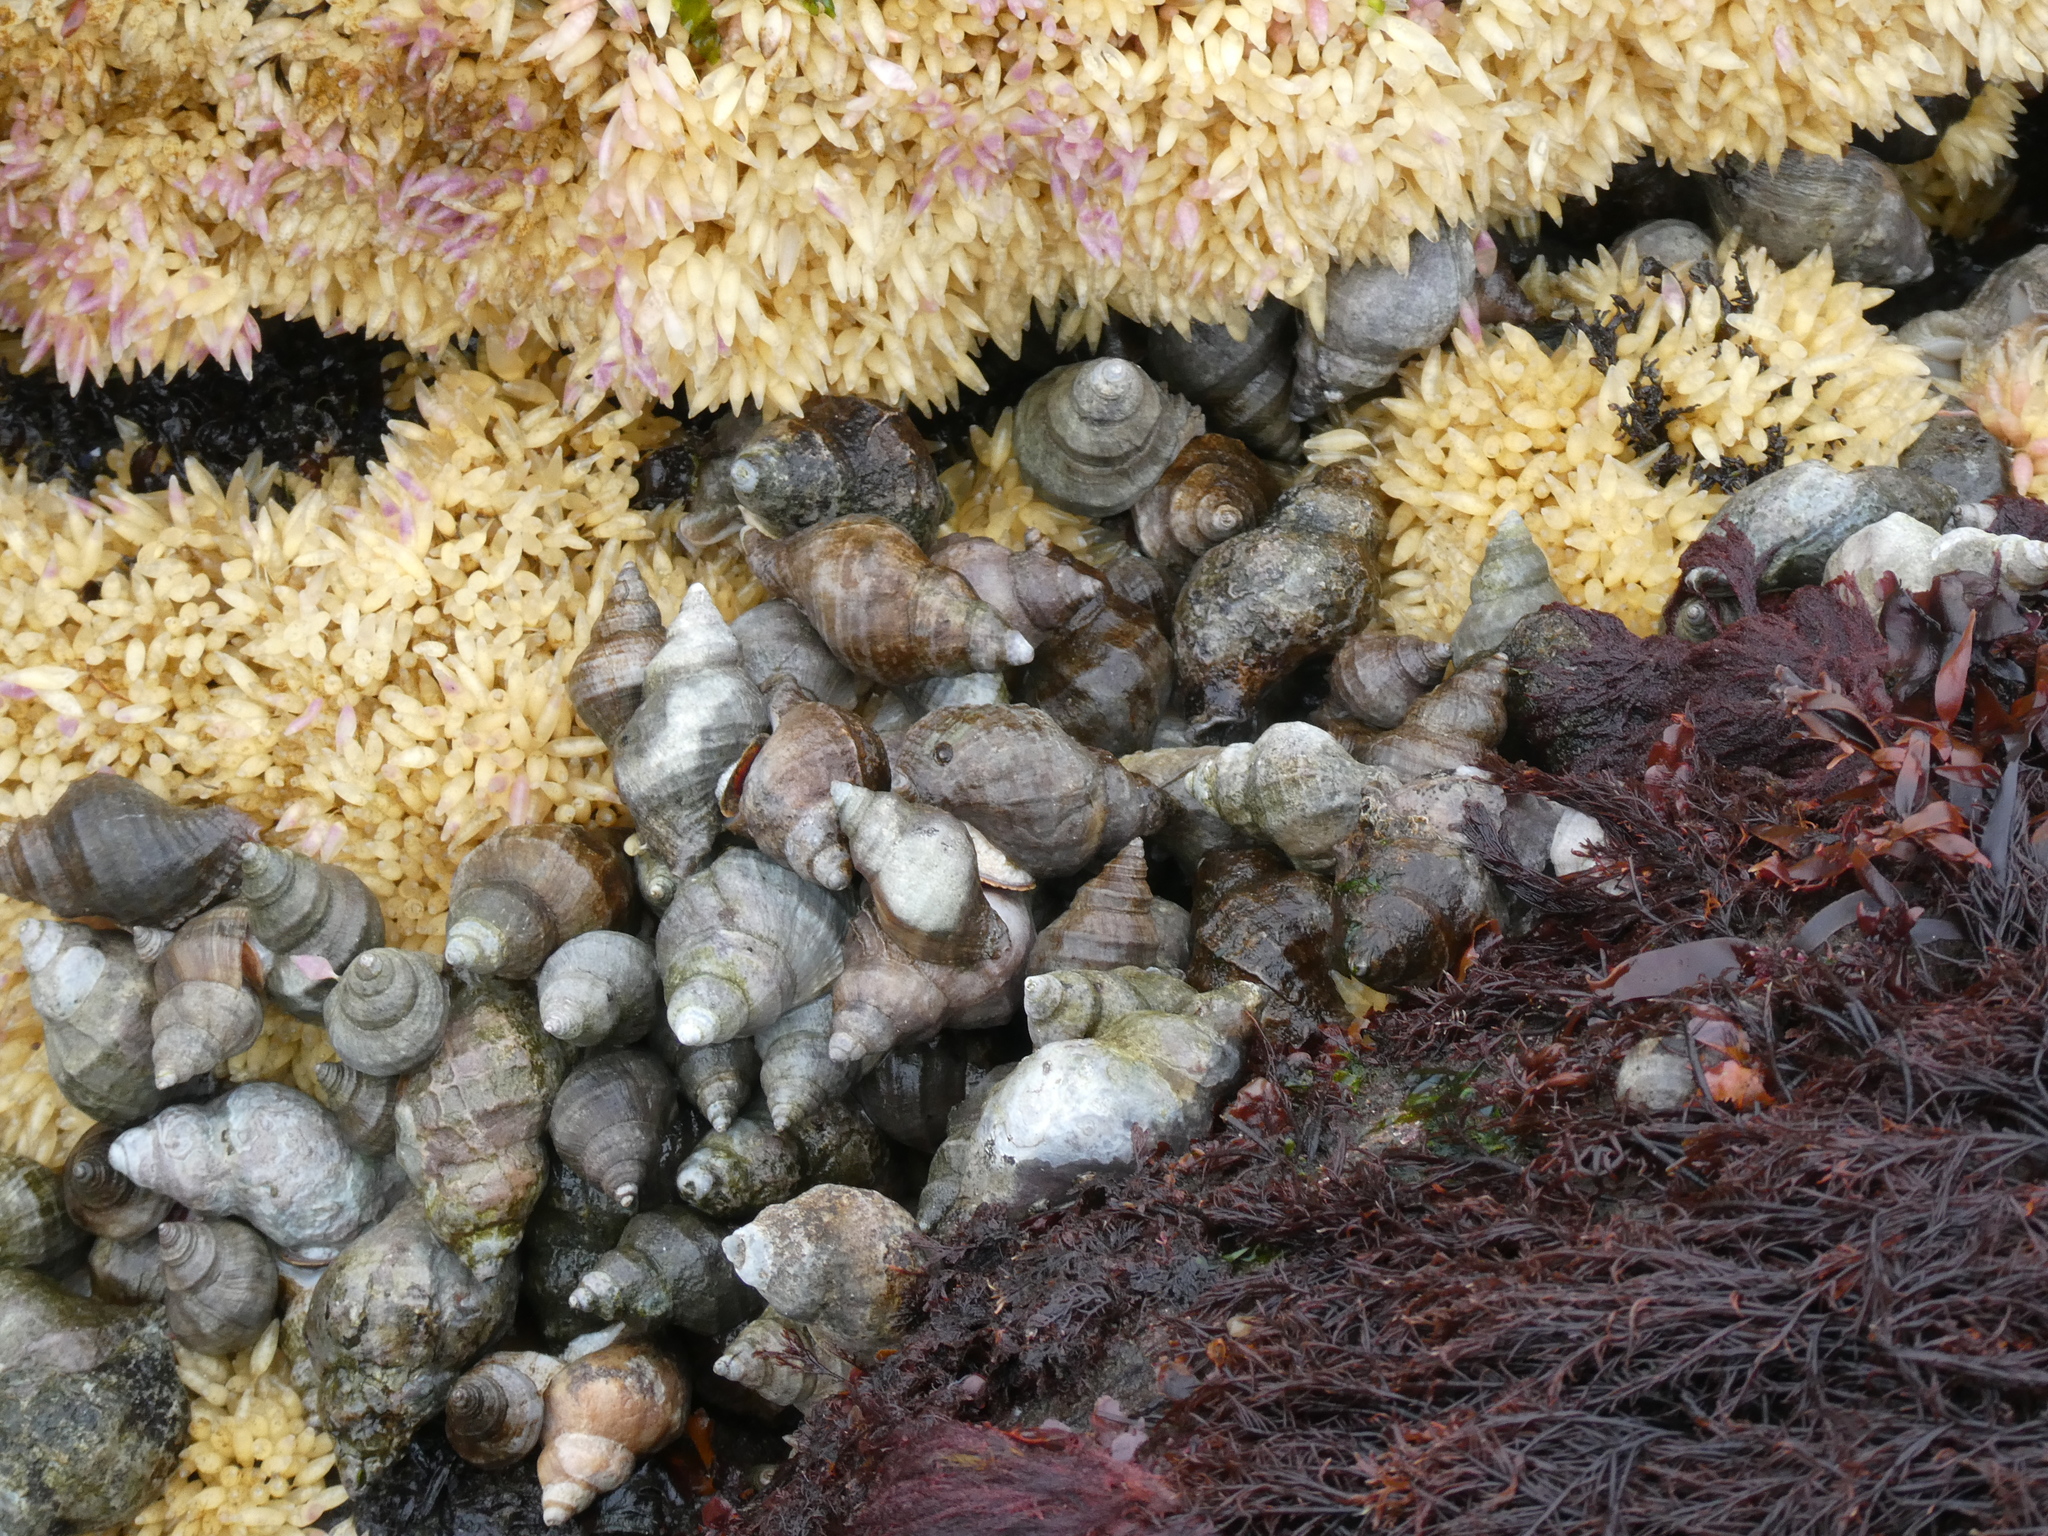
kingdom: Animalia
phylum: Mollusca
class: Gastropoda
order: Neogastropoda
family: Muricidae
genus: Nucella
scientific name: Nucella lamellosa
